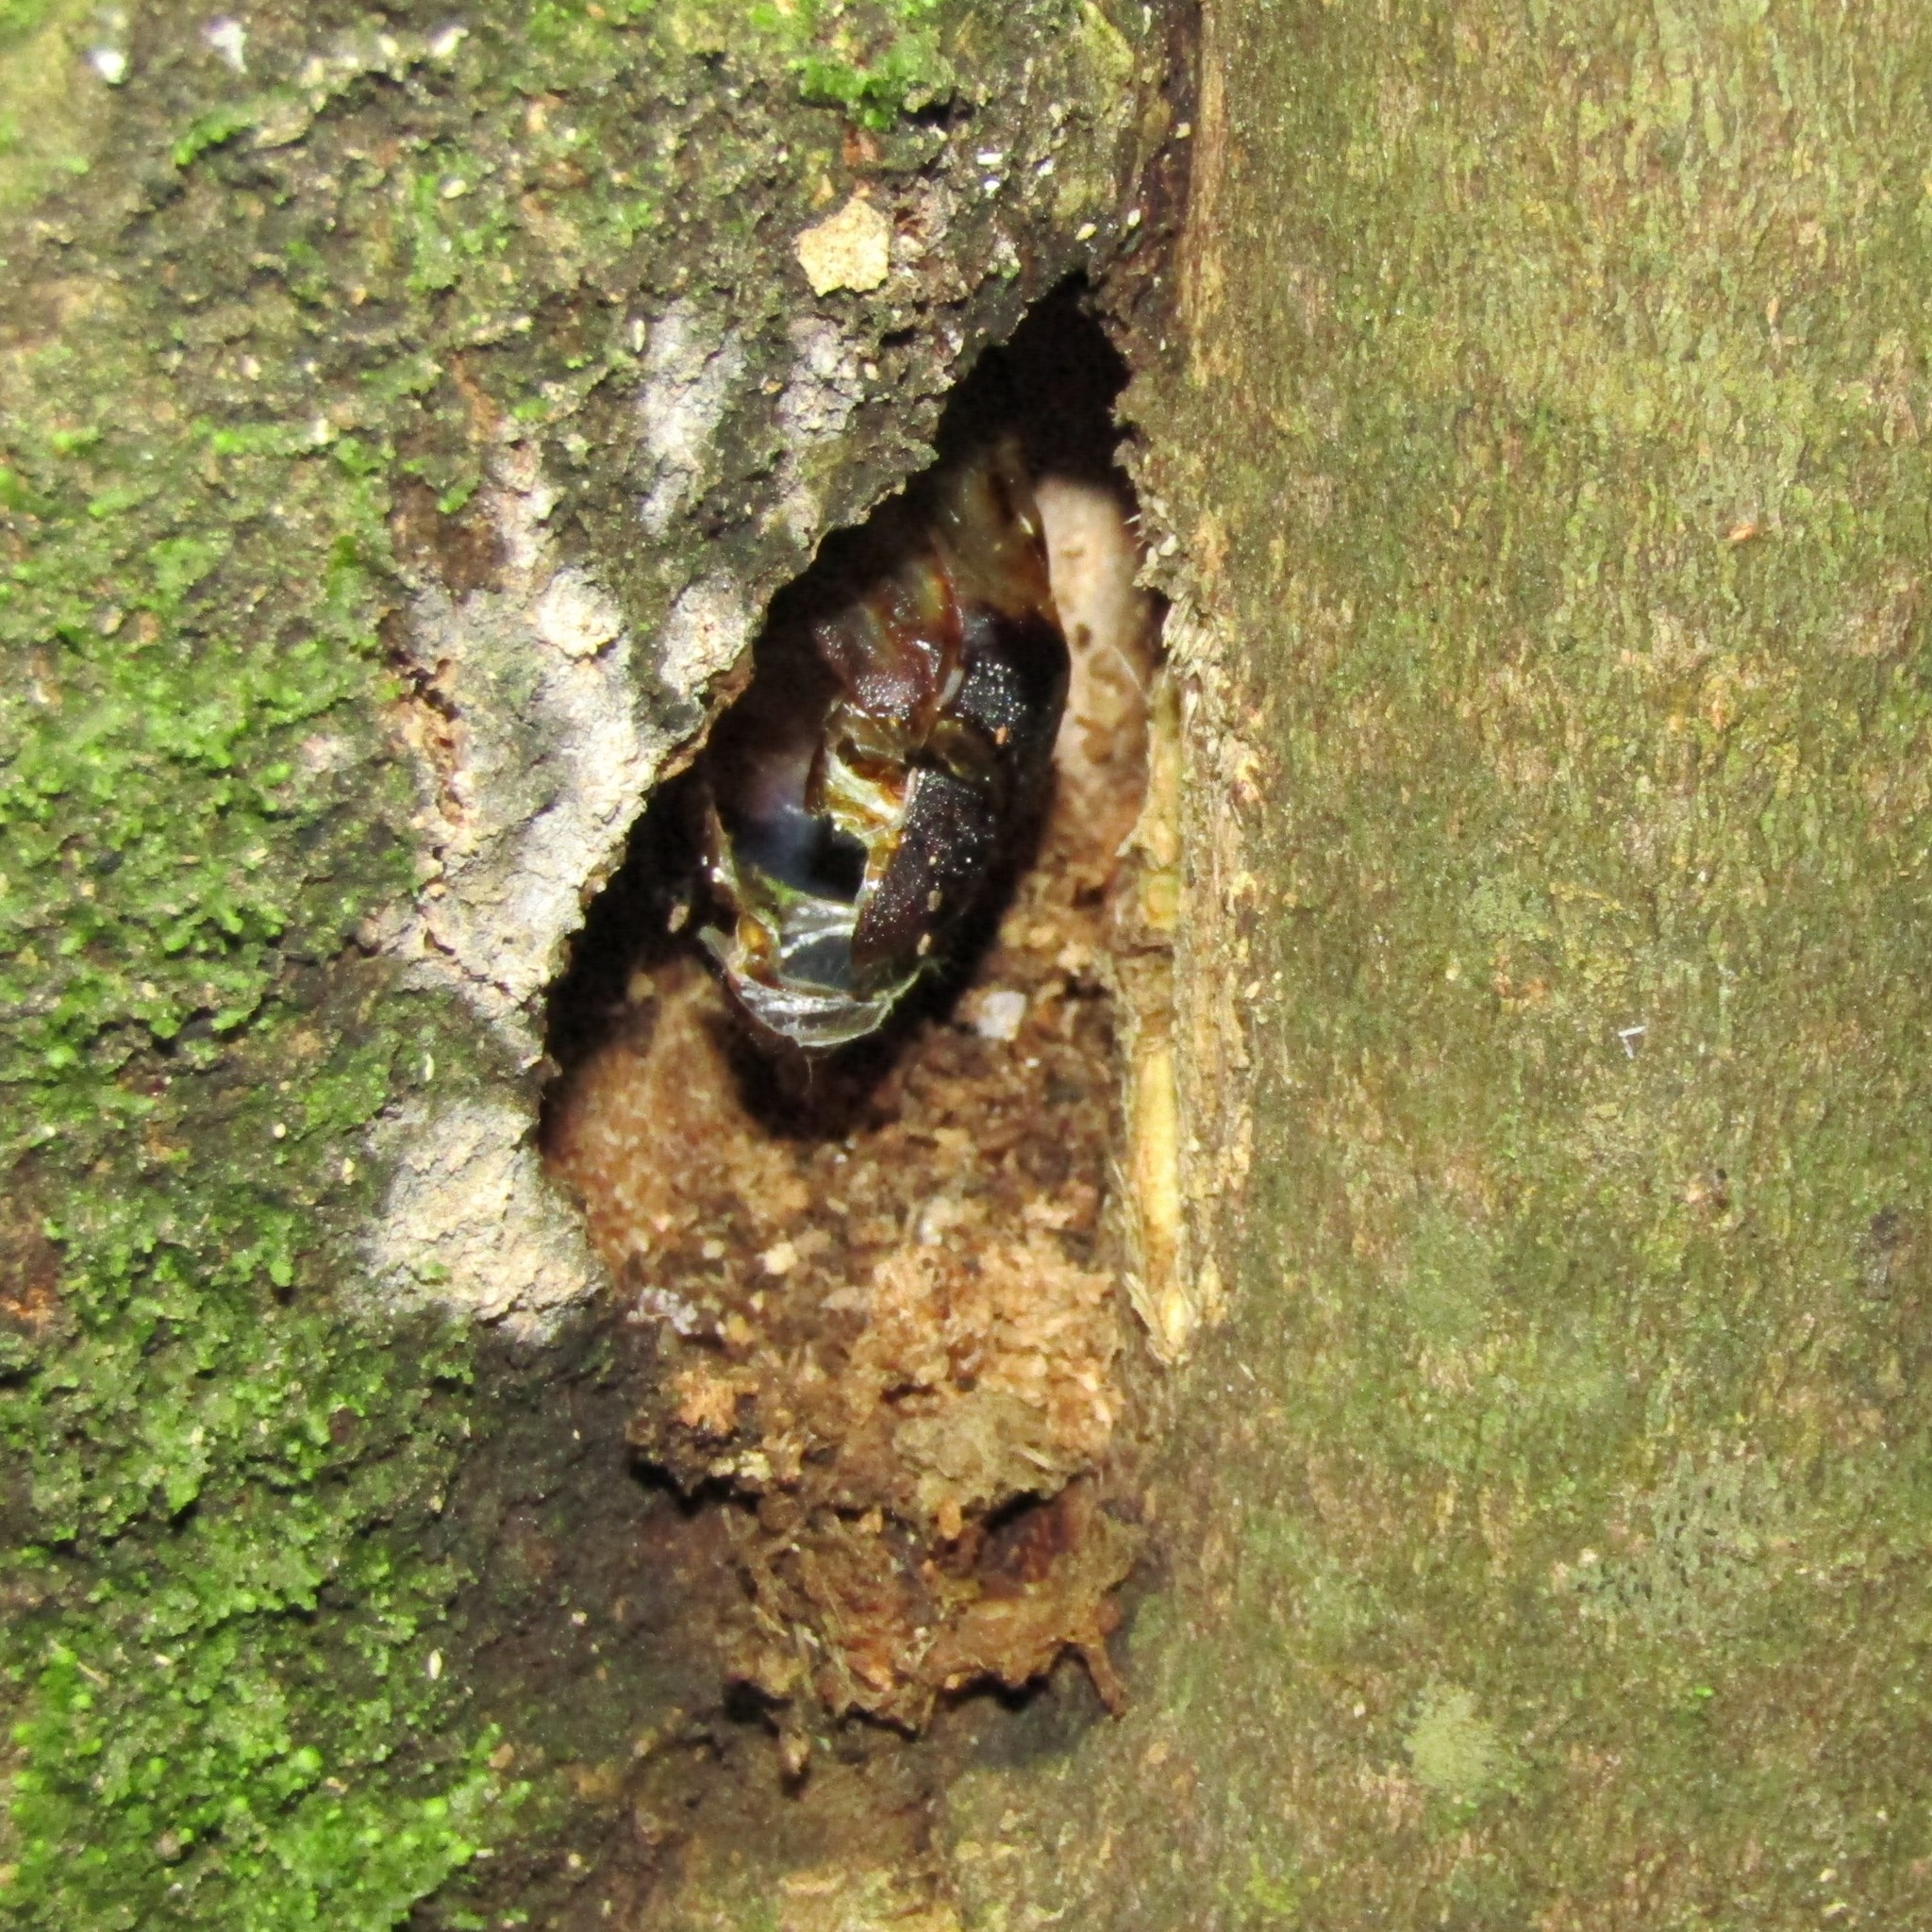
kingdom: Animalia
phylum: Arthropoda
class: Insecta
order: Lepidoptera
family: Hepialidae
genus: Aenetus
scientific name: Aenetus virescens
